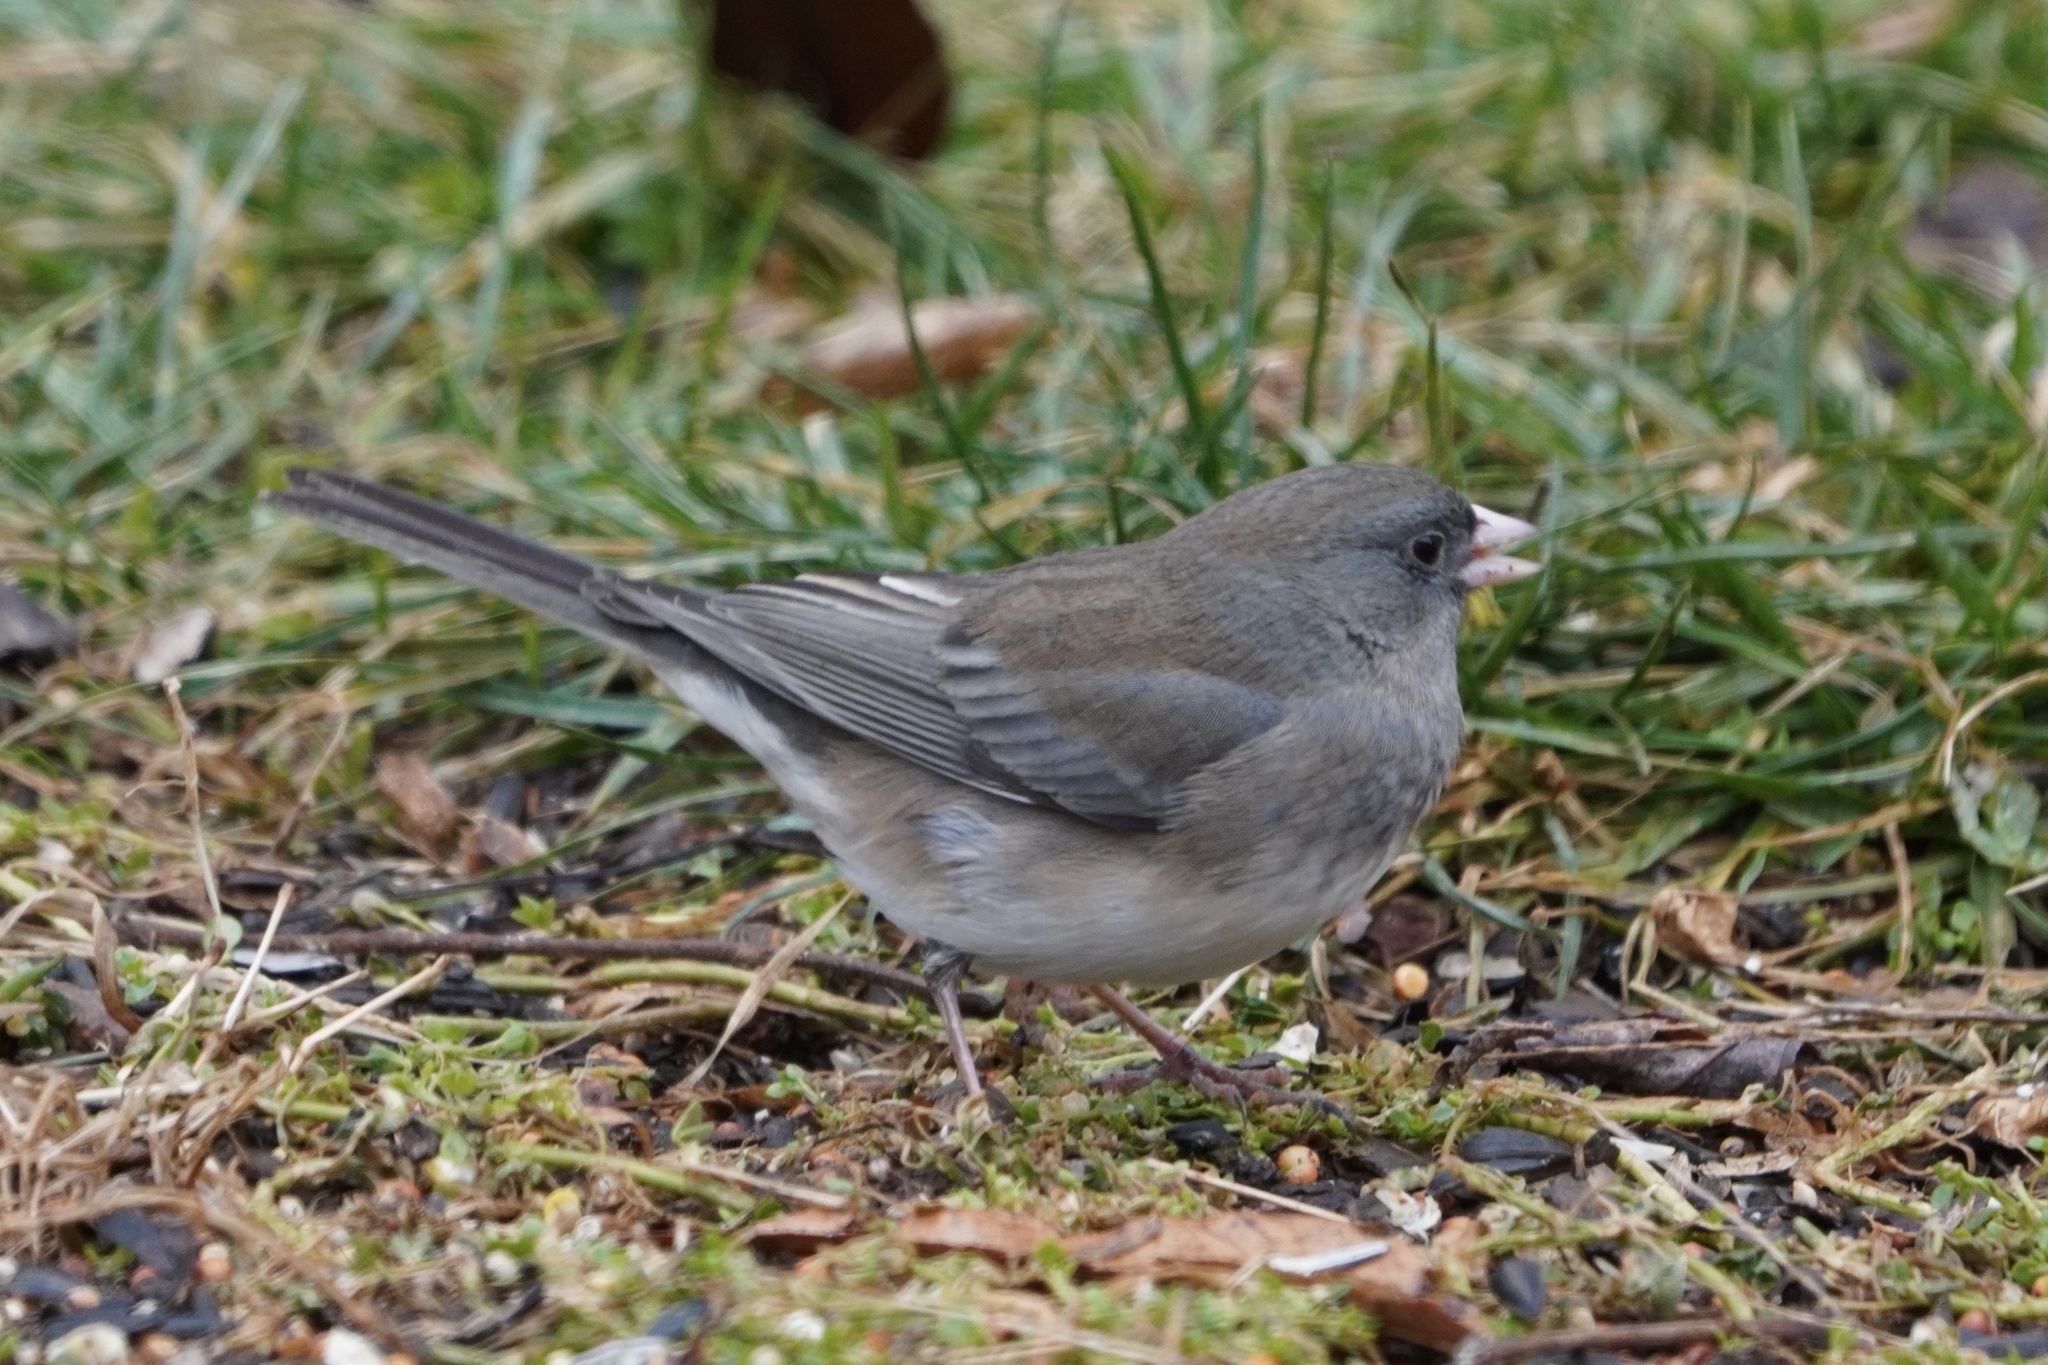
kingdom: Animalia
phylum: Chordata
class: Aves
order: Passeriformes
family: Passerellidae
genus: Junco
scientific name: Junco hyemalis
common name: Dark-eyed junco
